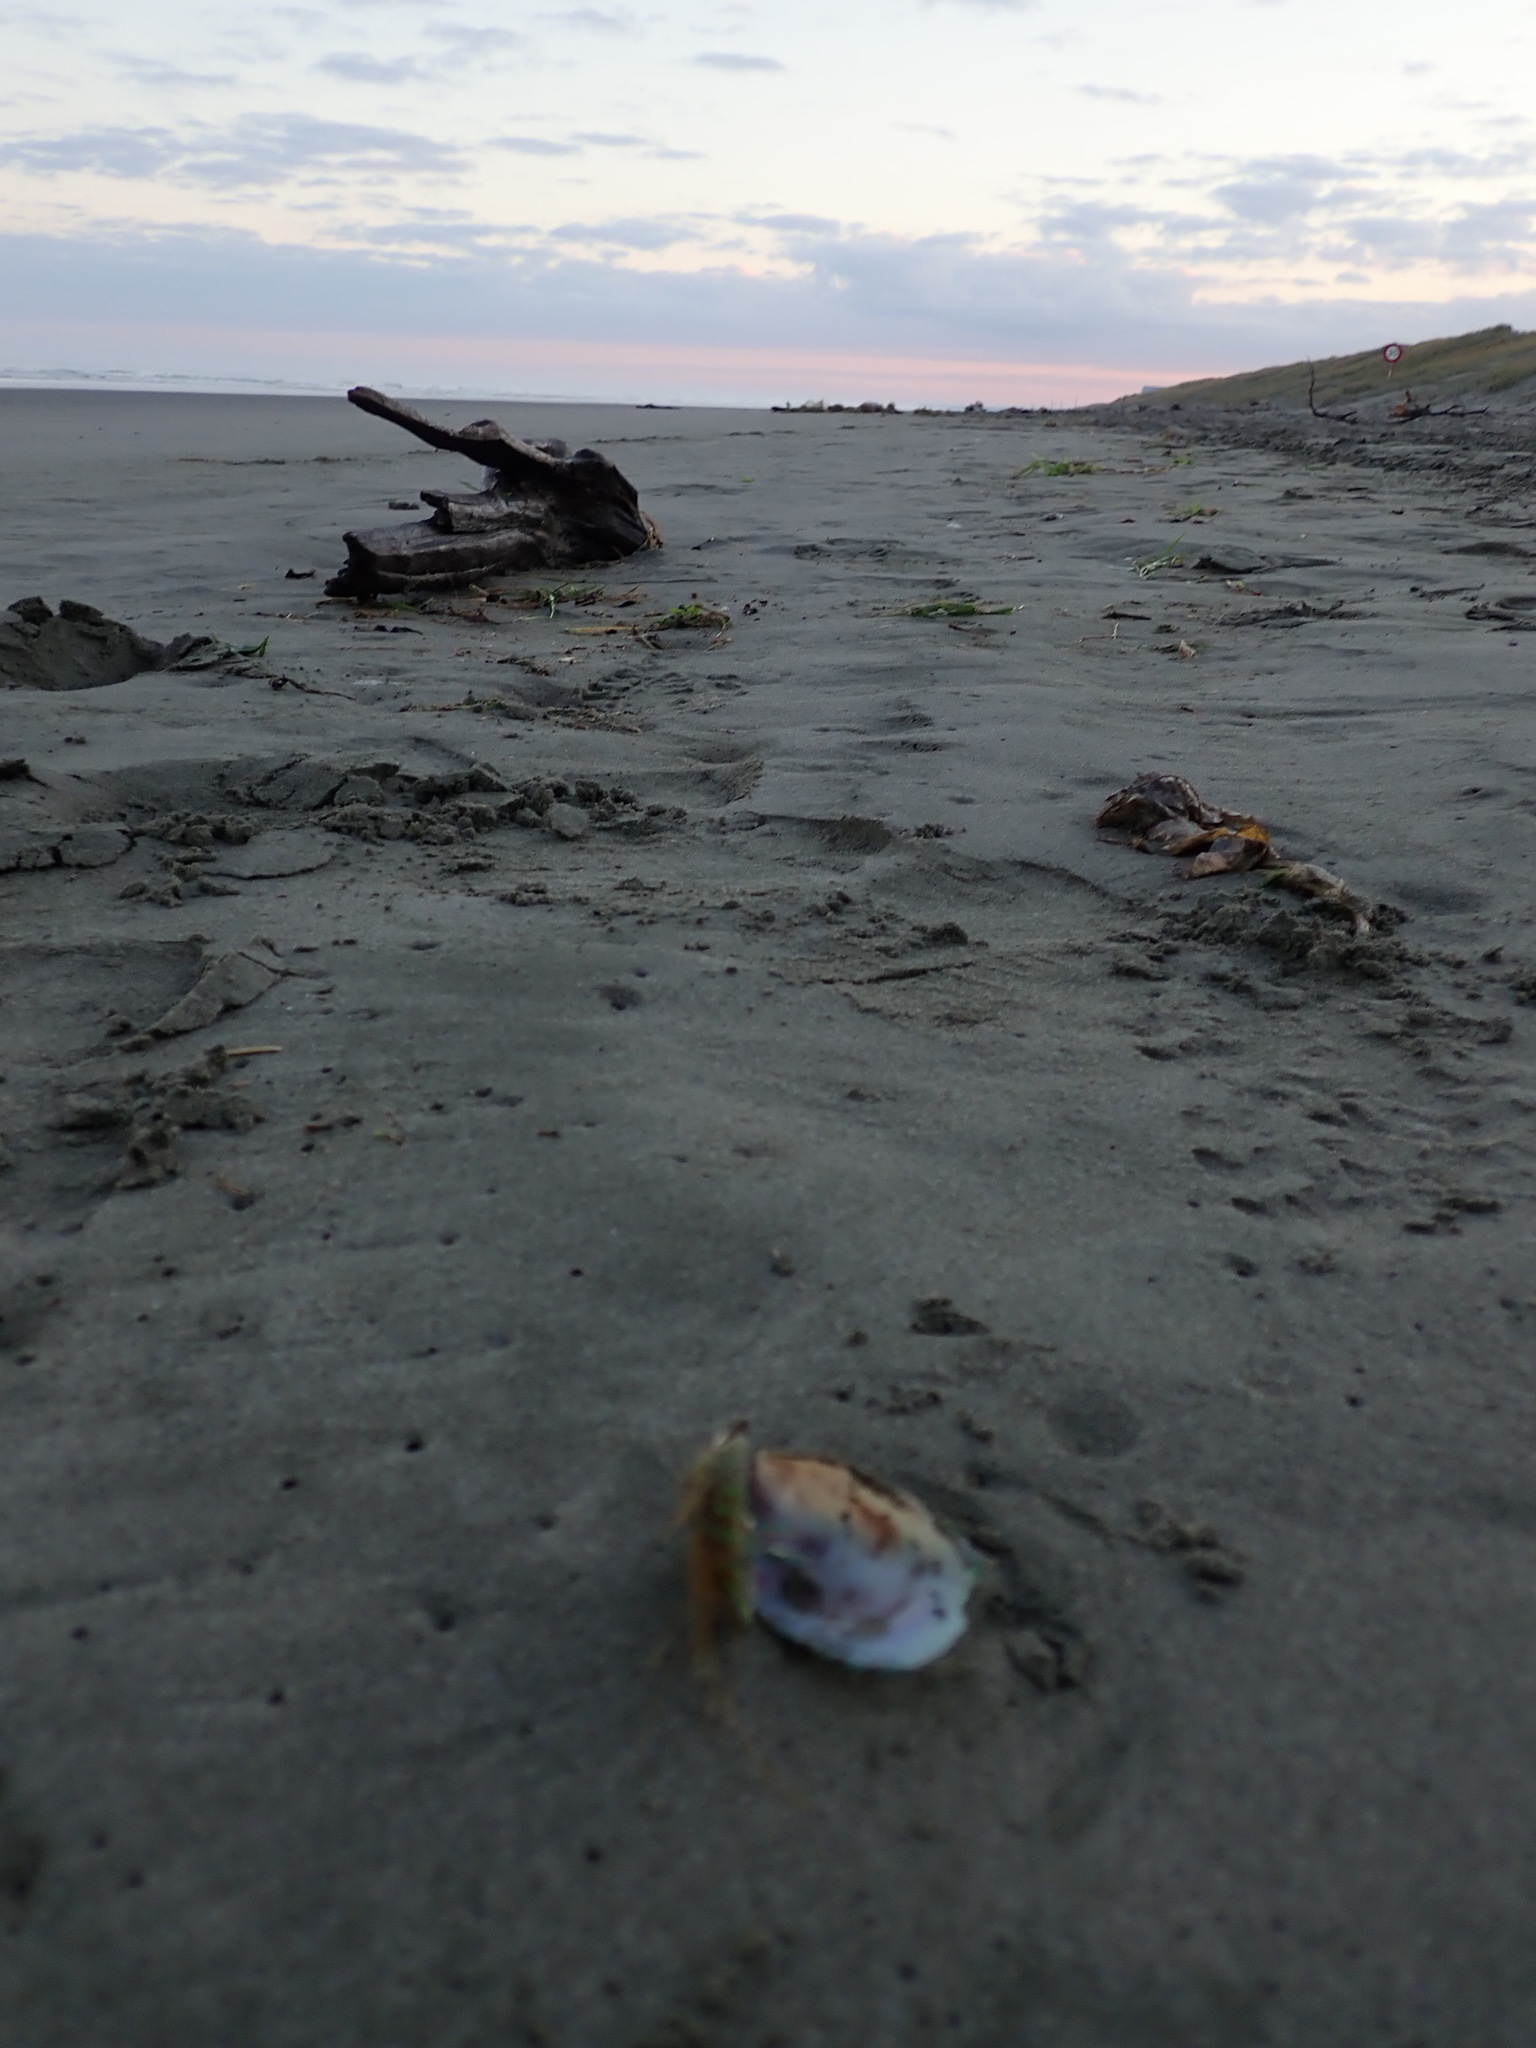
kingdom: Animalia
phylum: Mollusca
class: Bivalvia
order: Mytilida
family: Mytilidae
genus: Perna
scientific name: Perna canaliculus
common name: New zealand greenshelltm
